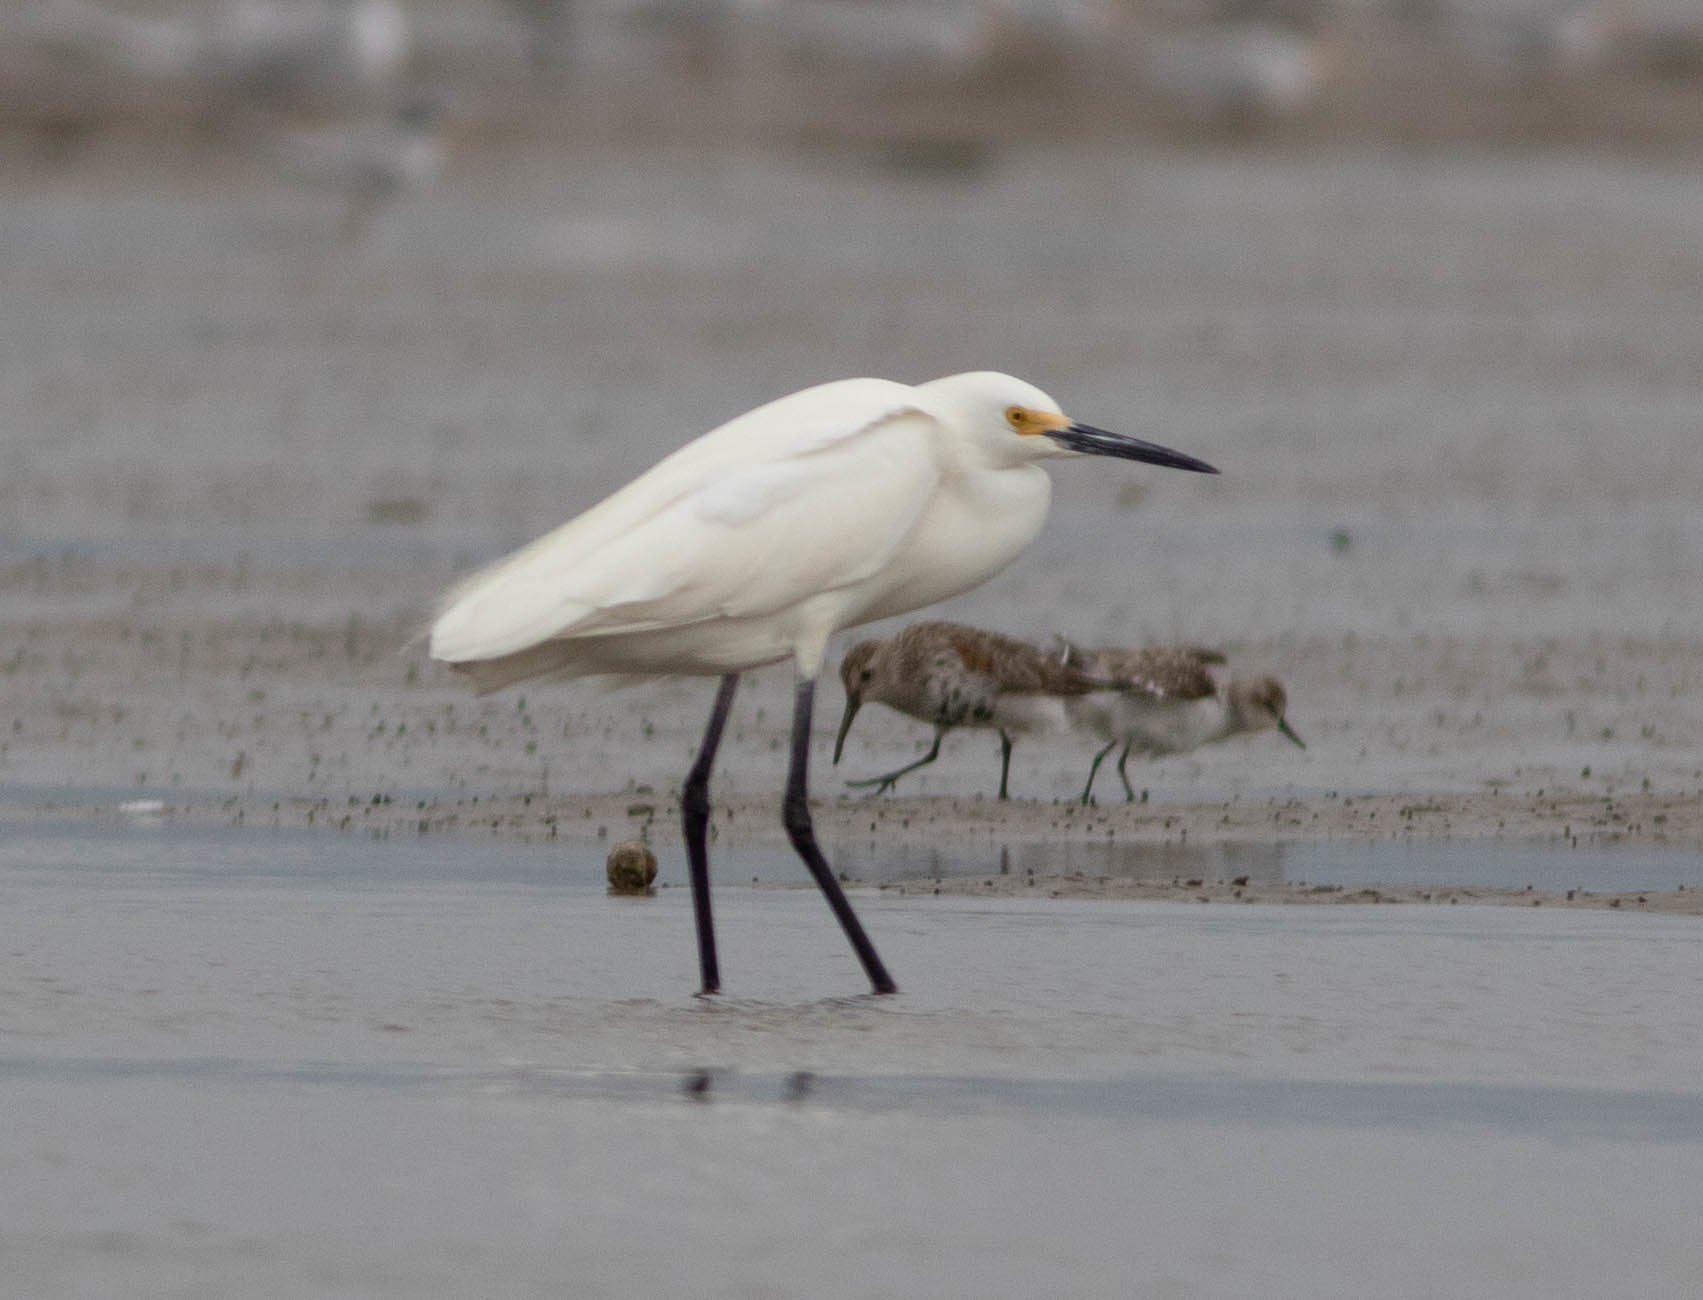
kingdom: Animalia
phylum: Chordata
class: Aves
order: Pelecaniformes
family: Ardeidae
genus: Egretta
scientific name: Egretta thula
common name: Snowy egret
